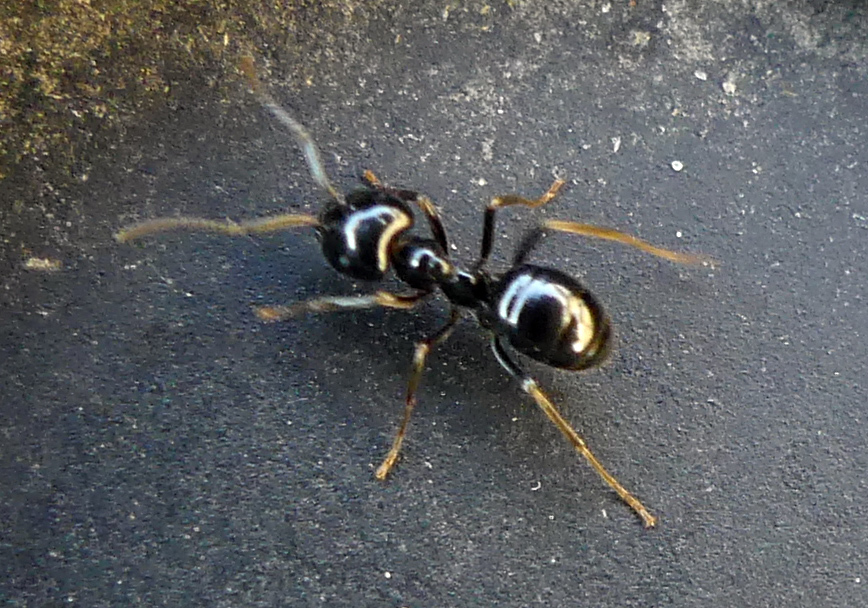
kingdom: Animalia
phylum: Arthropoda
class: Insecta
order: Hymenoptera
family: Formicidae
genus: Lasius
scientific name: Lasius fuliginosus
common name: Jet ant
